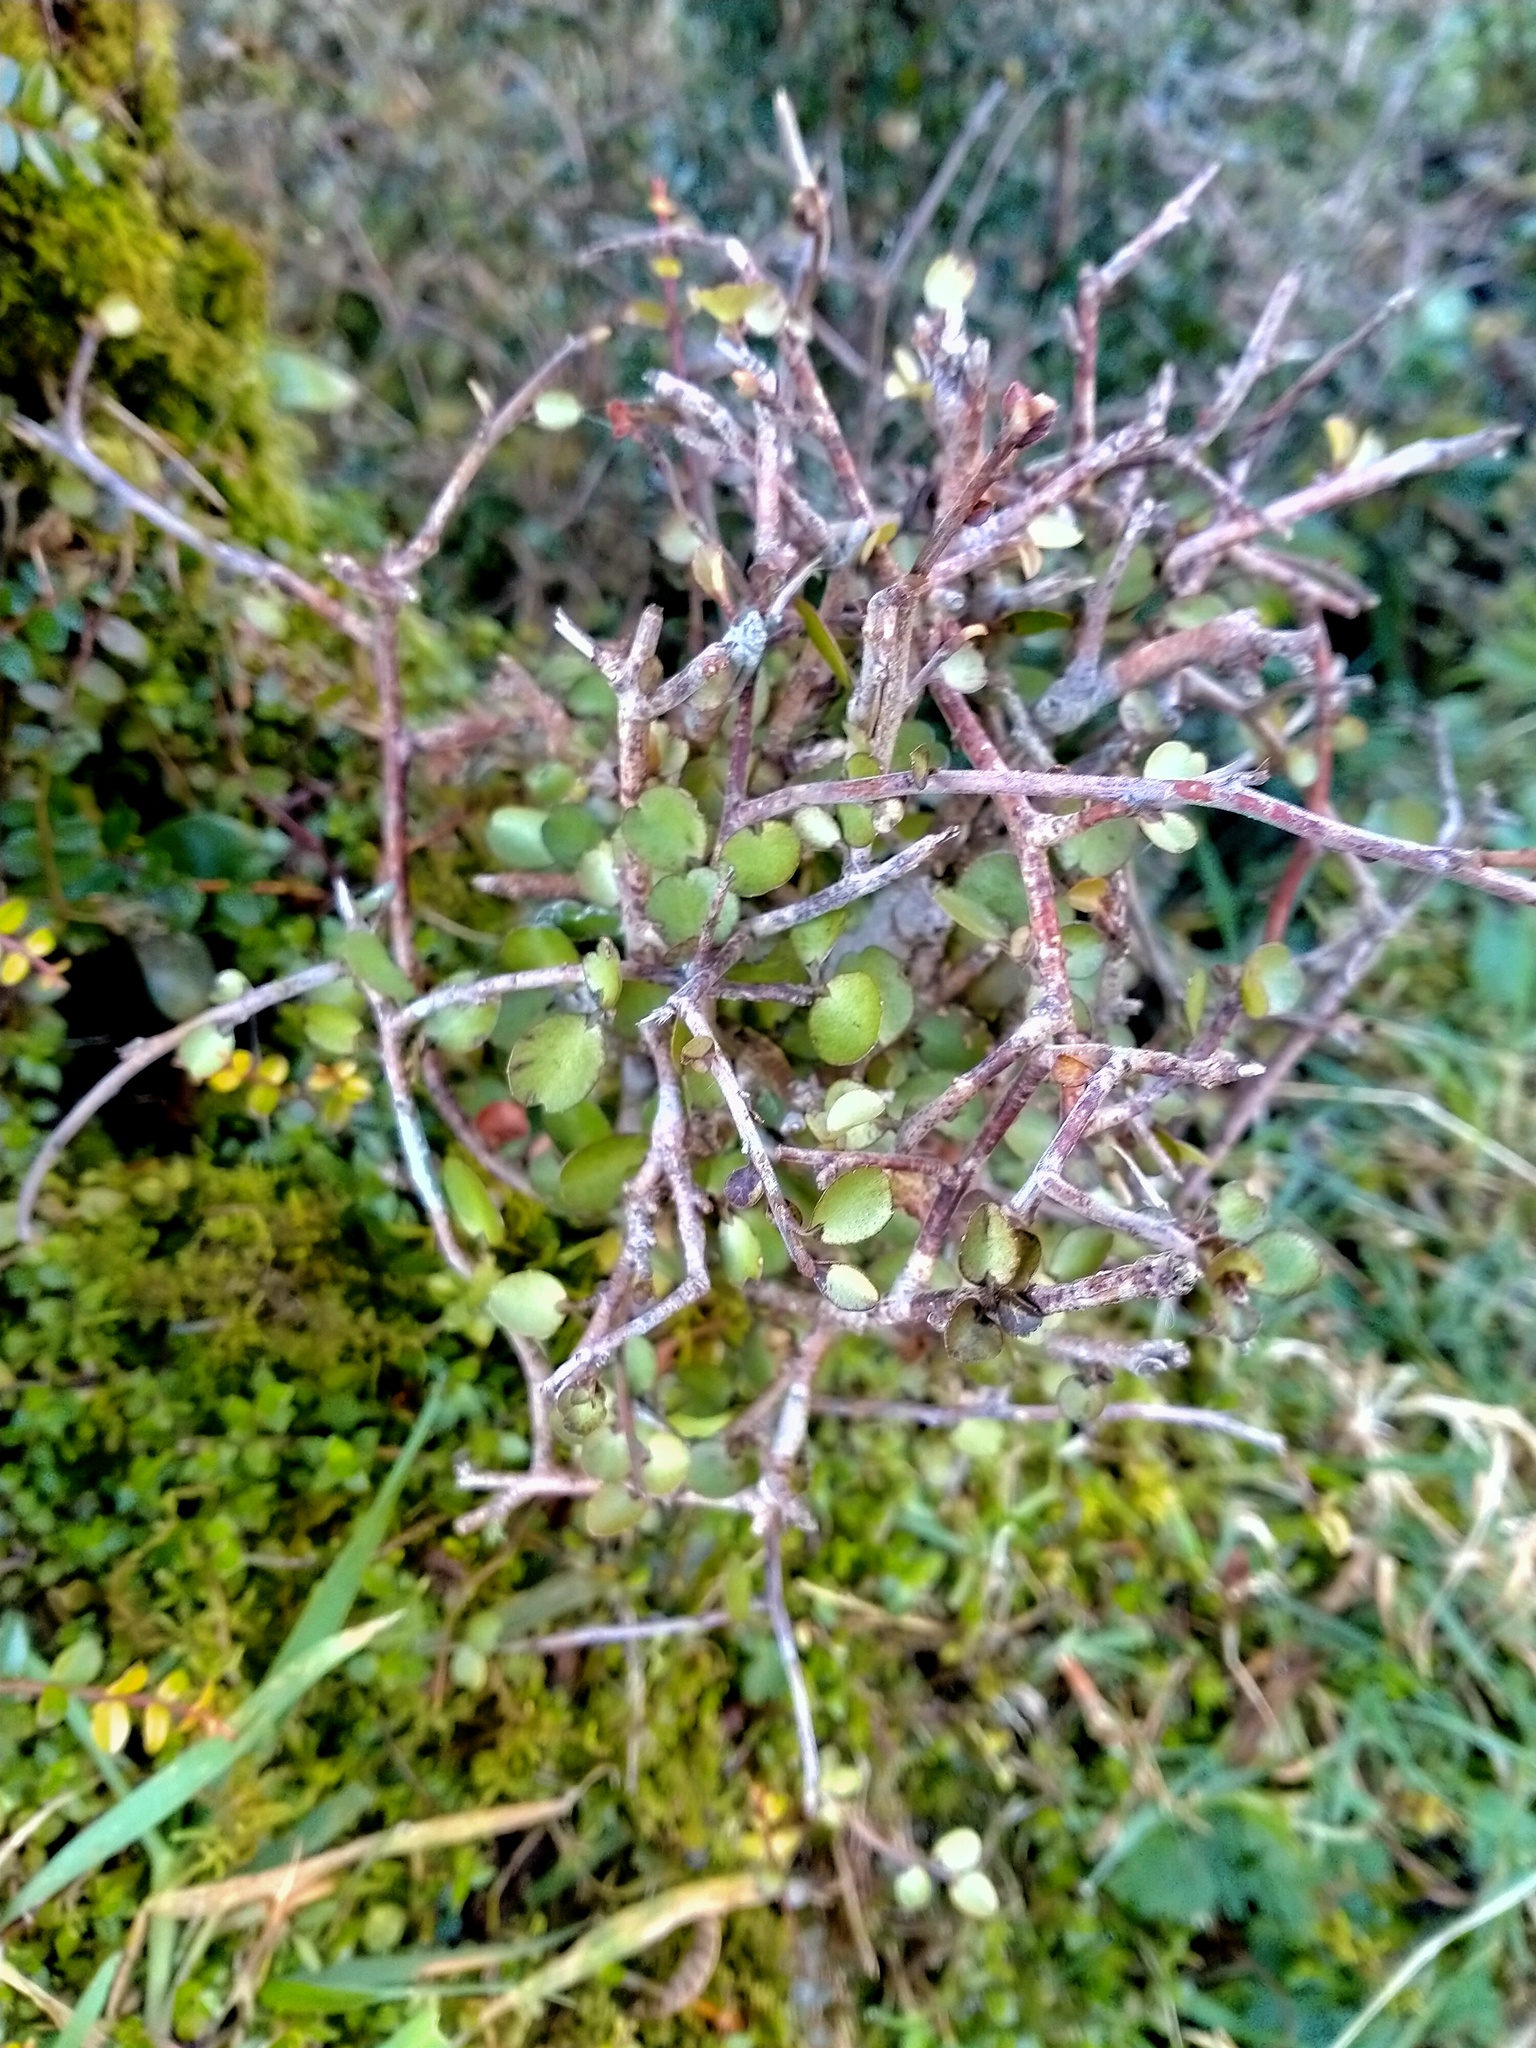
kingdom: Plantae
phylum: Tracheophyta
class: Magnoliopsida
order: Ericales
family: Primulaceae
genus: Myrsine
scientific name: Myrsine divaricata
